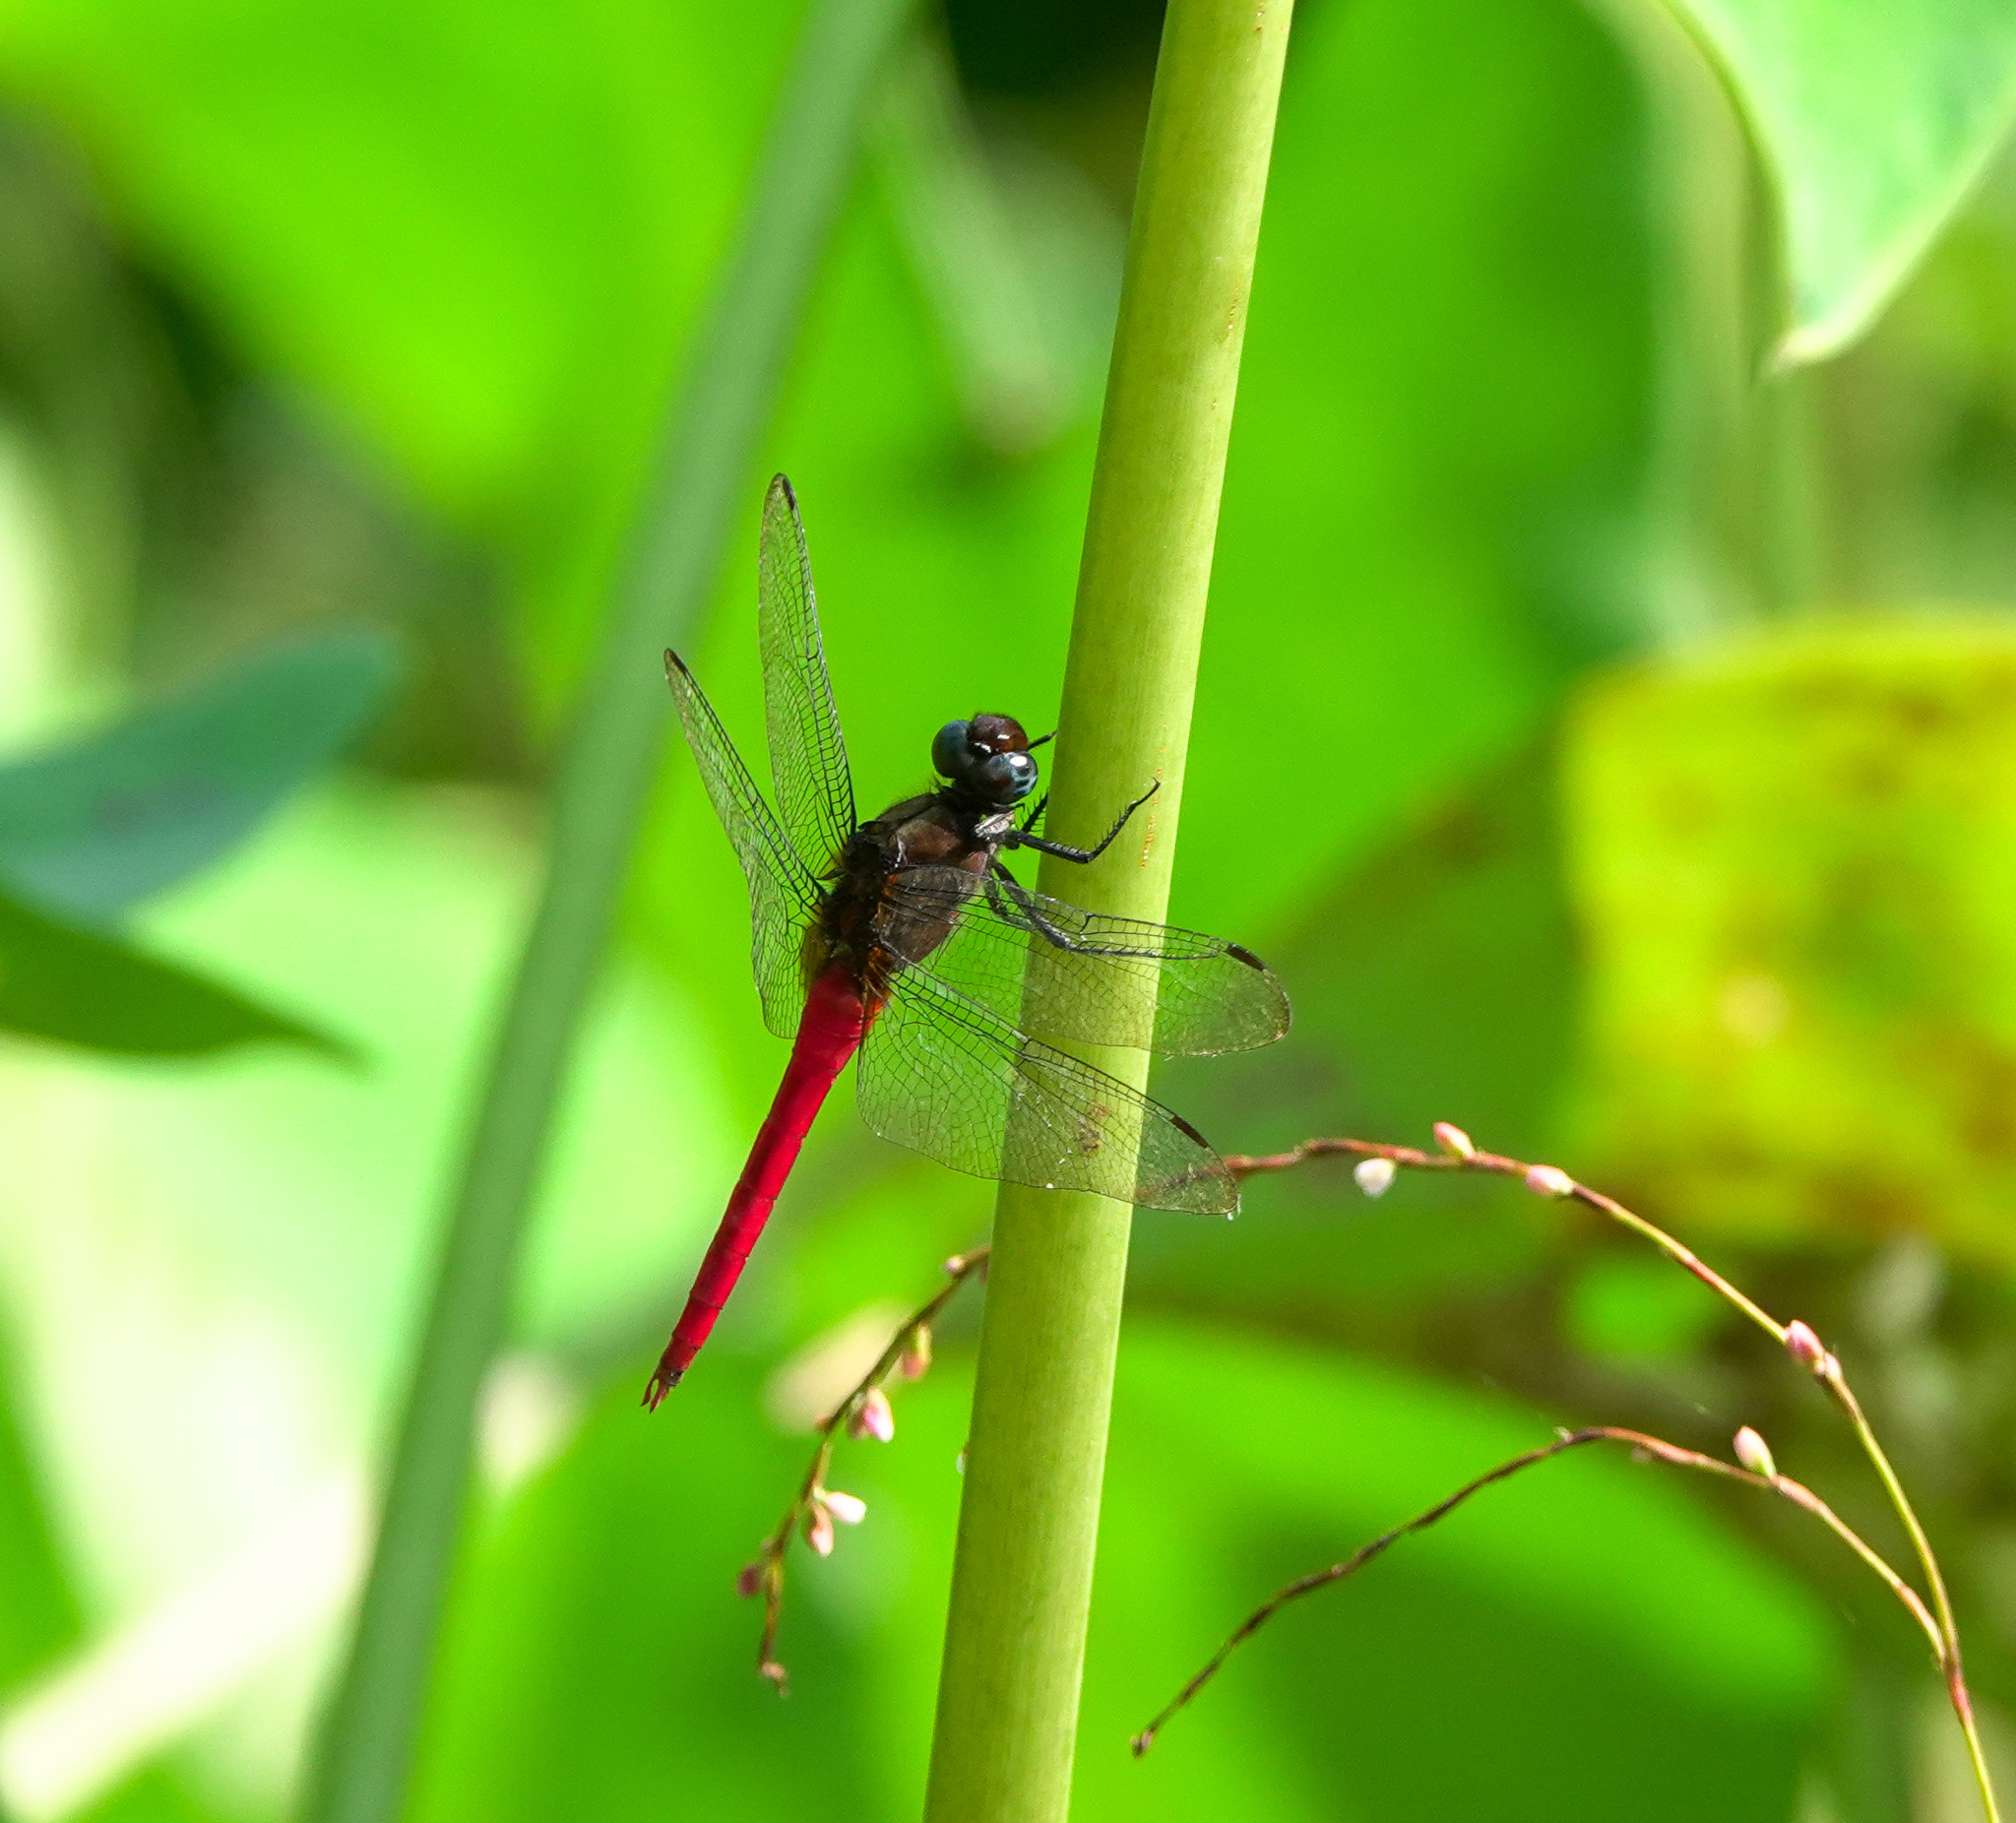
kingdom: Animalia
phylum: Arthropoda
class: Insecta
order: Odonata
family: Libellulidae
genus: Orthetrum
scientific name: Orthetrum chrysis
